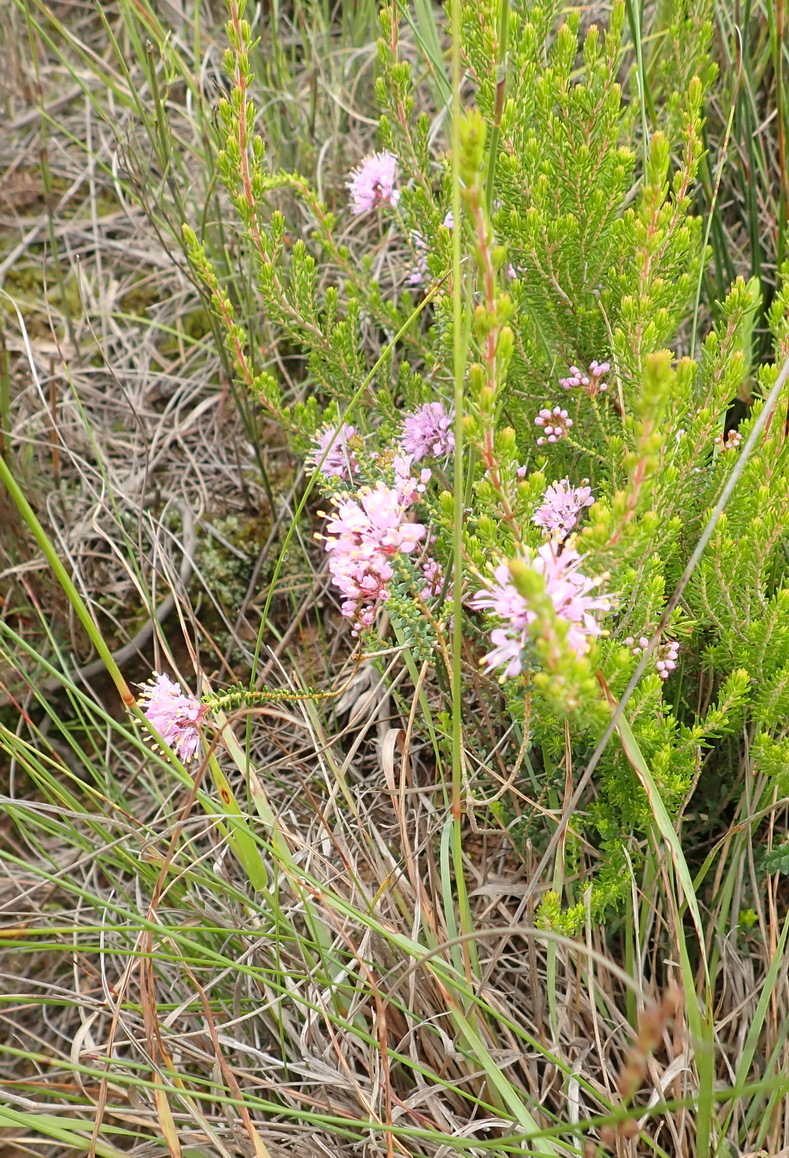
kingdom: Plantae
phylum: Tracheophyta
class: Magnoliopsida
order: Sapindales
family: Rutaceae
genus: Agathosma
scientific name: Agathosma capensis
